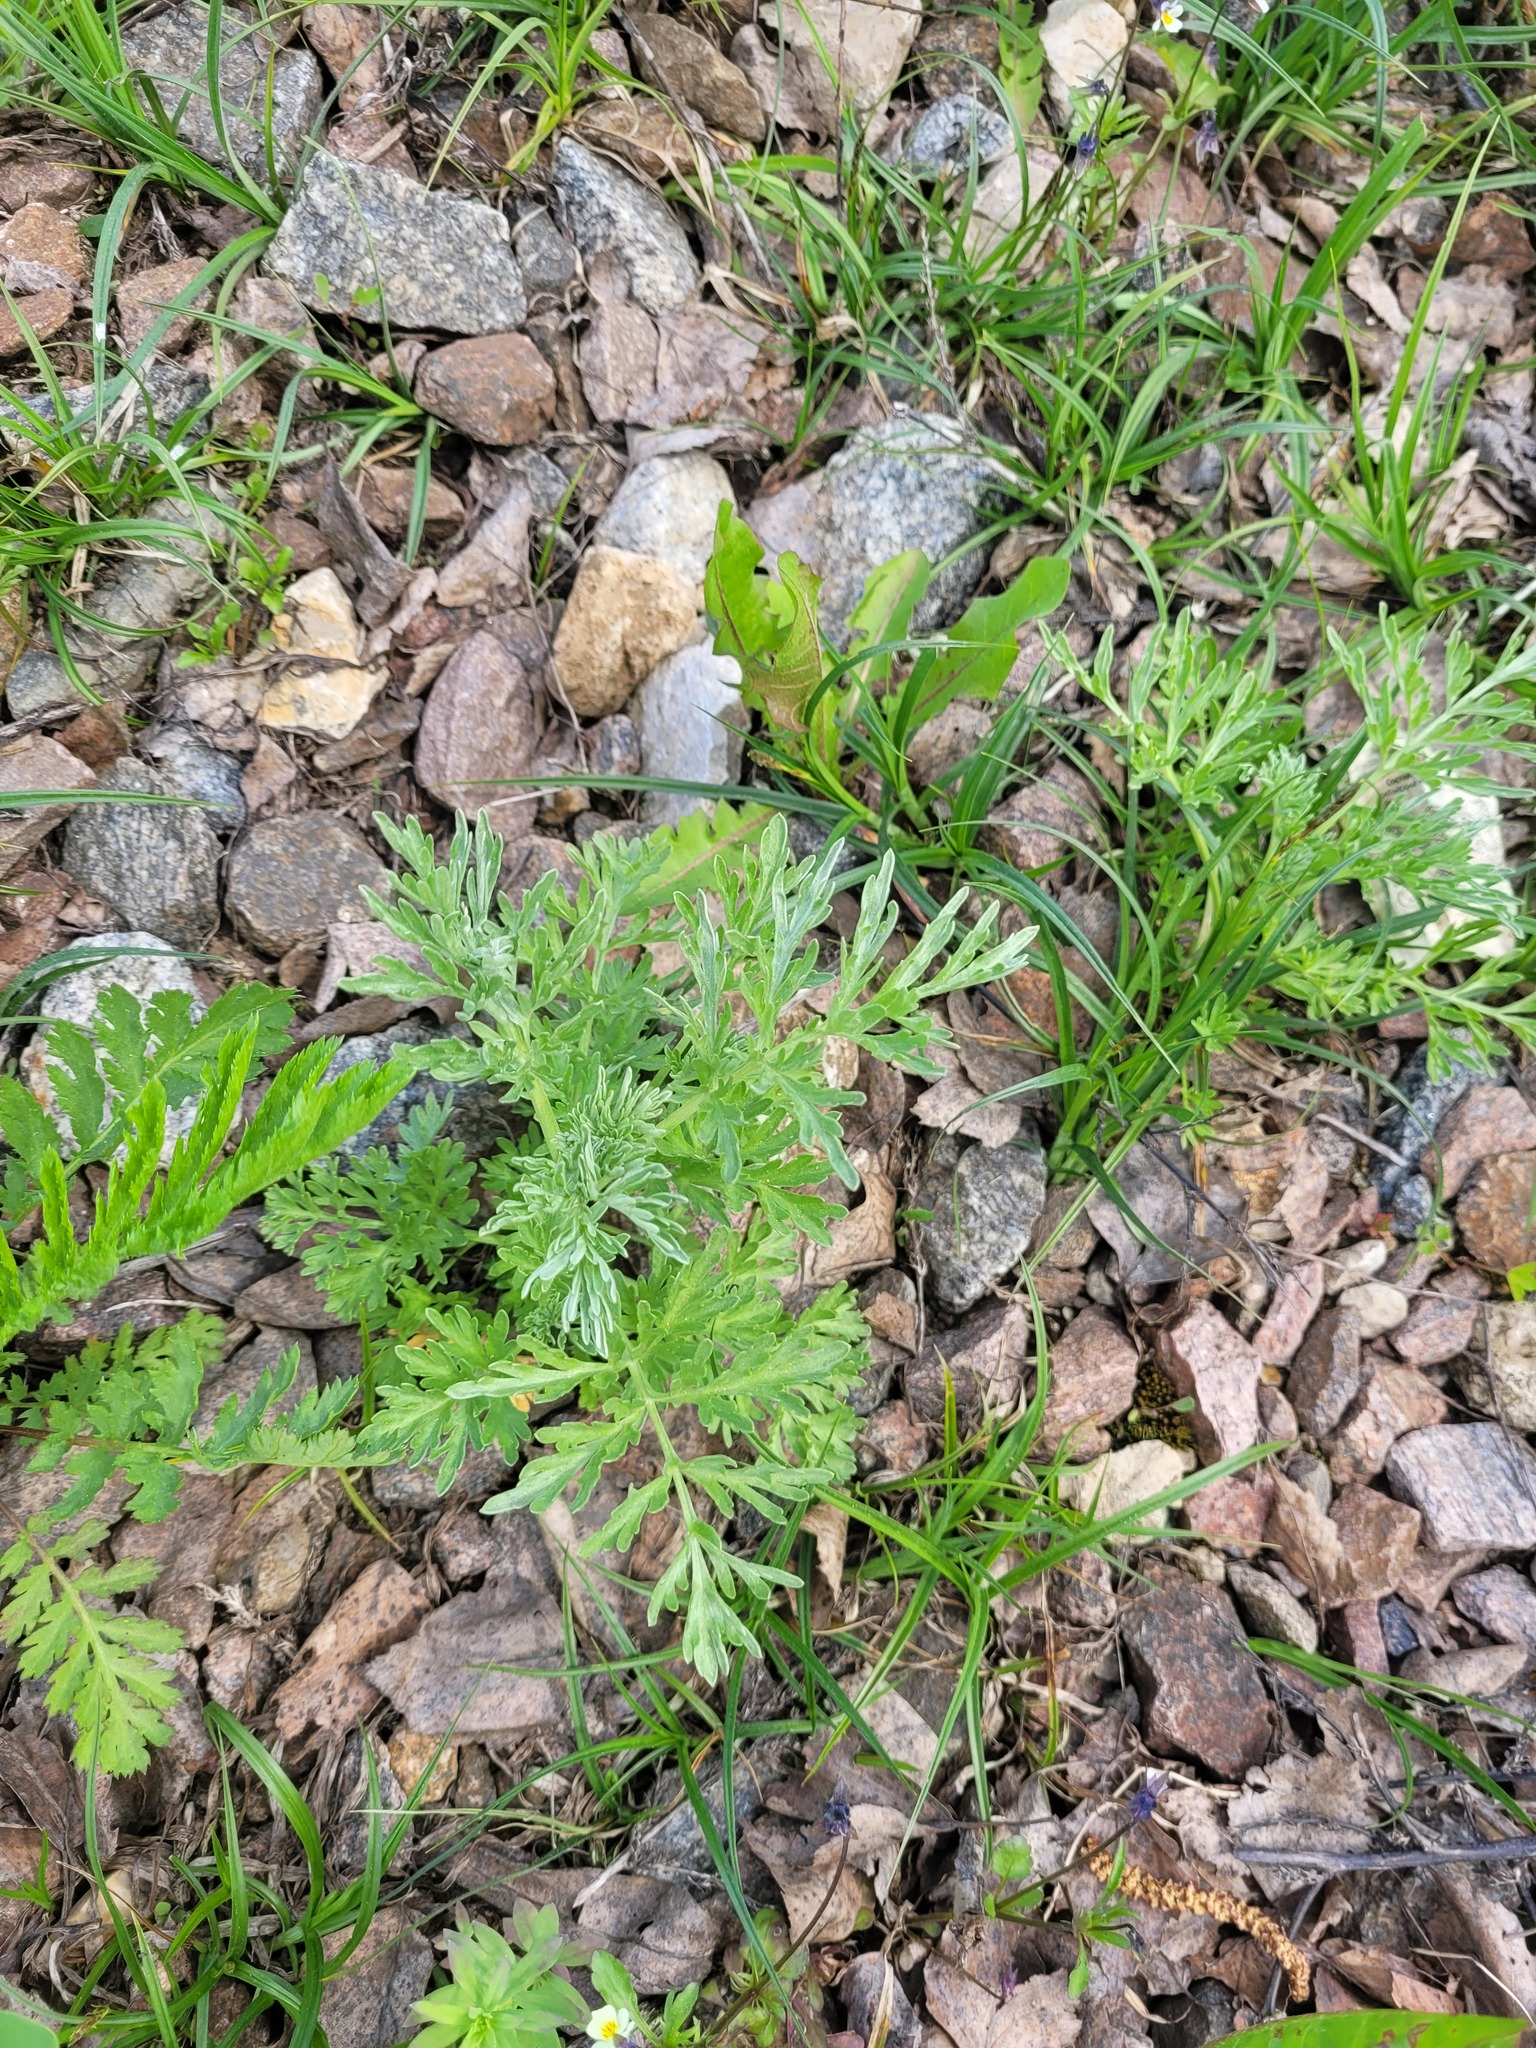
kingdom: Plantae
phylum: Tracheophyta
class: Magnoliopsida
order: Asterales
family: Asteraceae
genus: Artemisia
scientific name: Artemisia absinthium
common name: Wormwood
